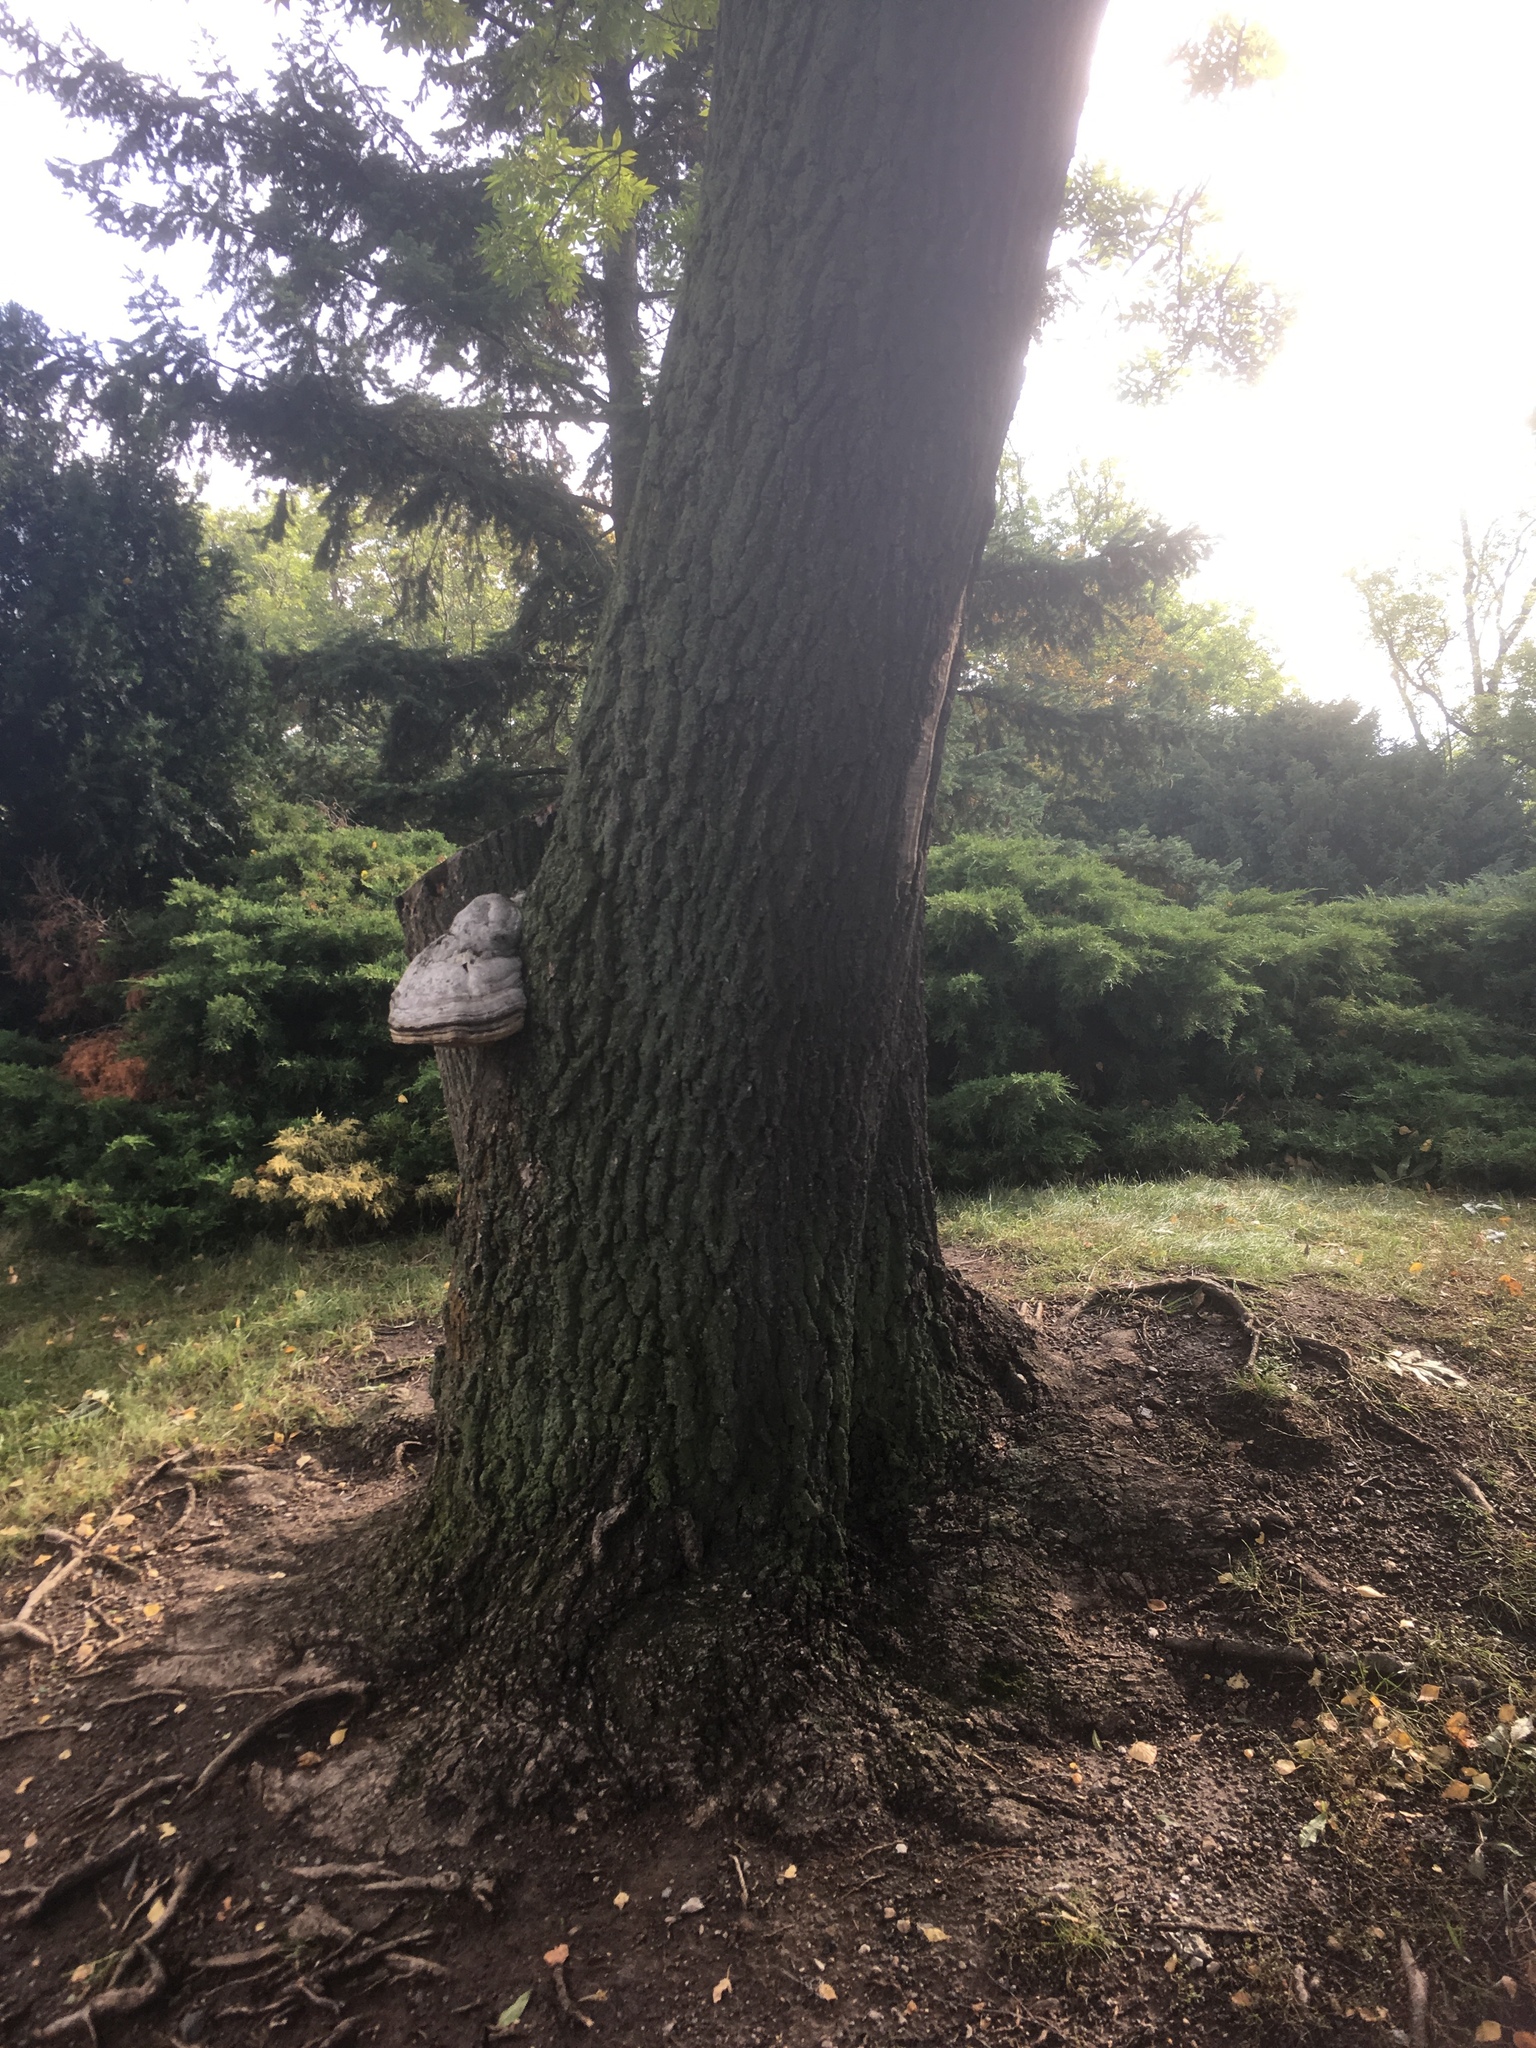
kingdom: Fungi
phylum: Basidiomycota
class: Agaricomycetes
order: Polyporales
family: Polyporaceae
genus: Fomes
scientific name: Fomes fomentarius
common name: Hoof fungus
